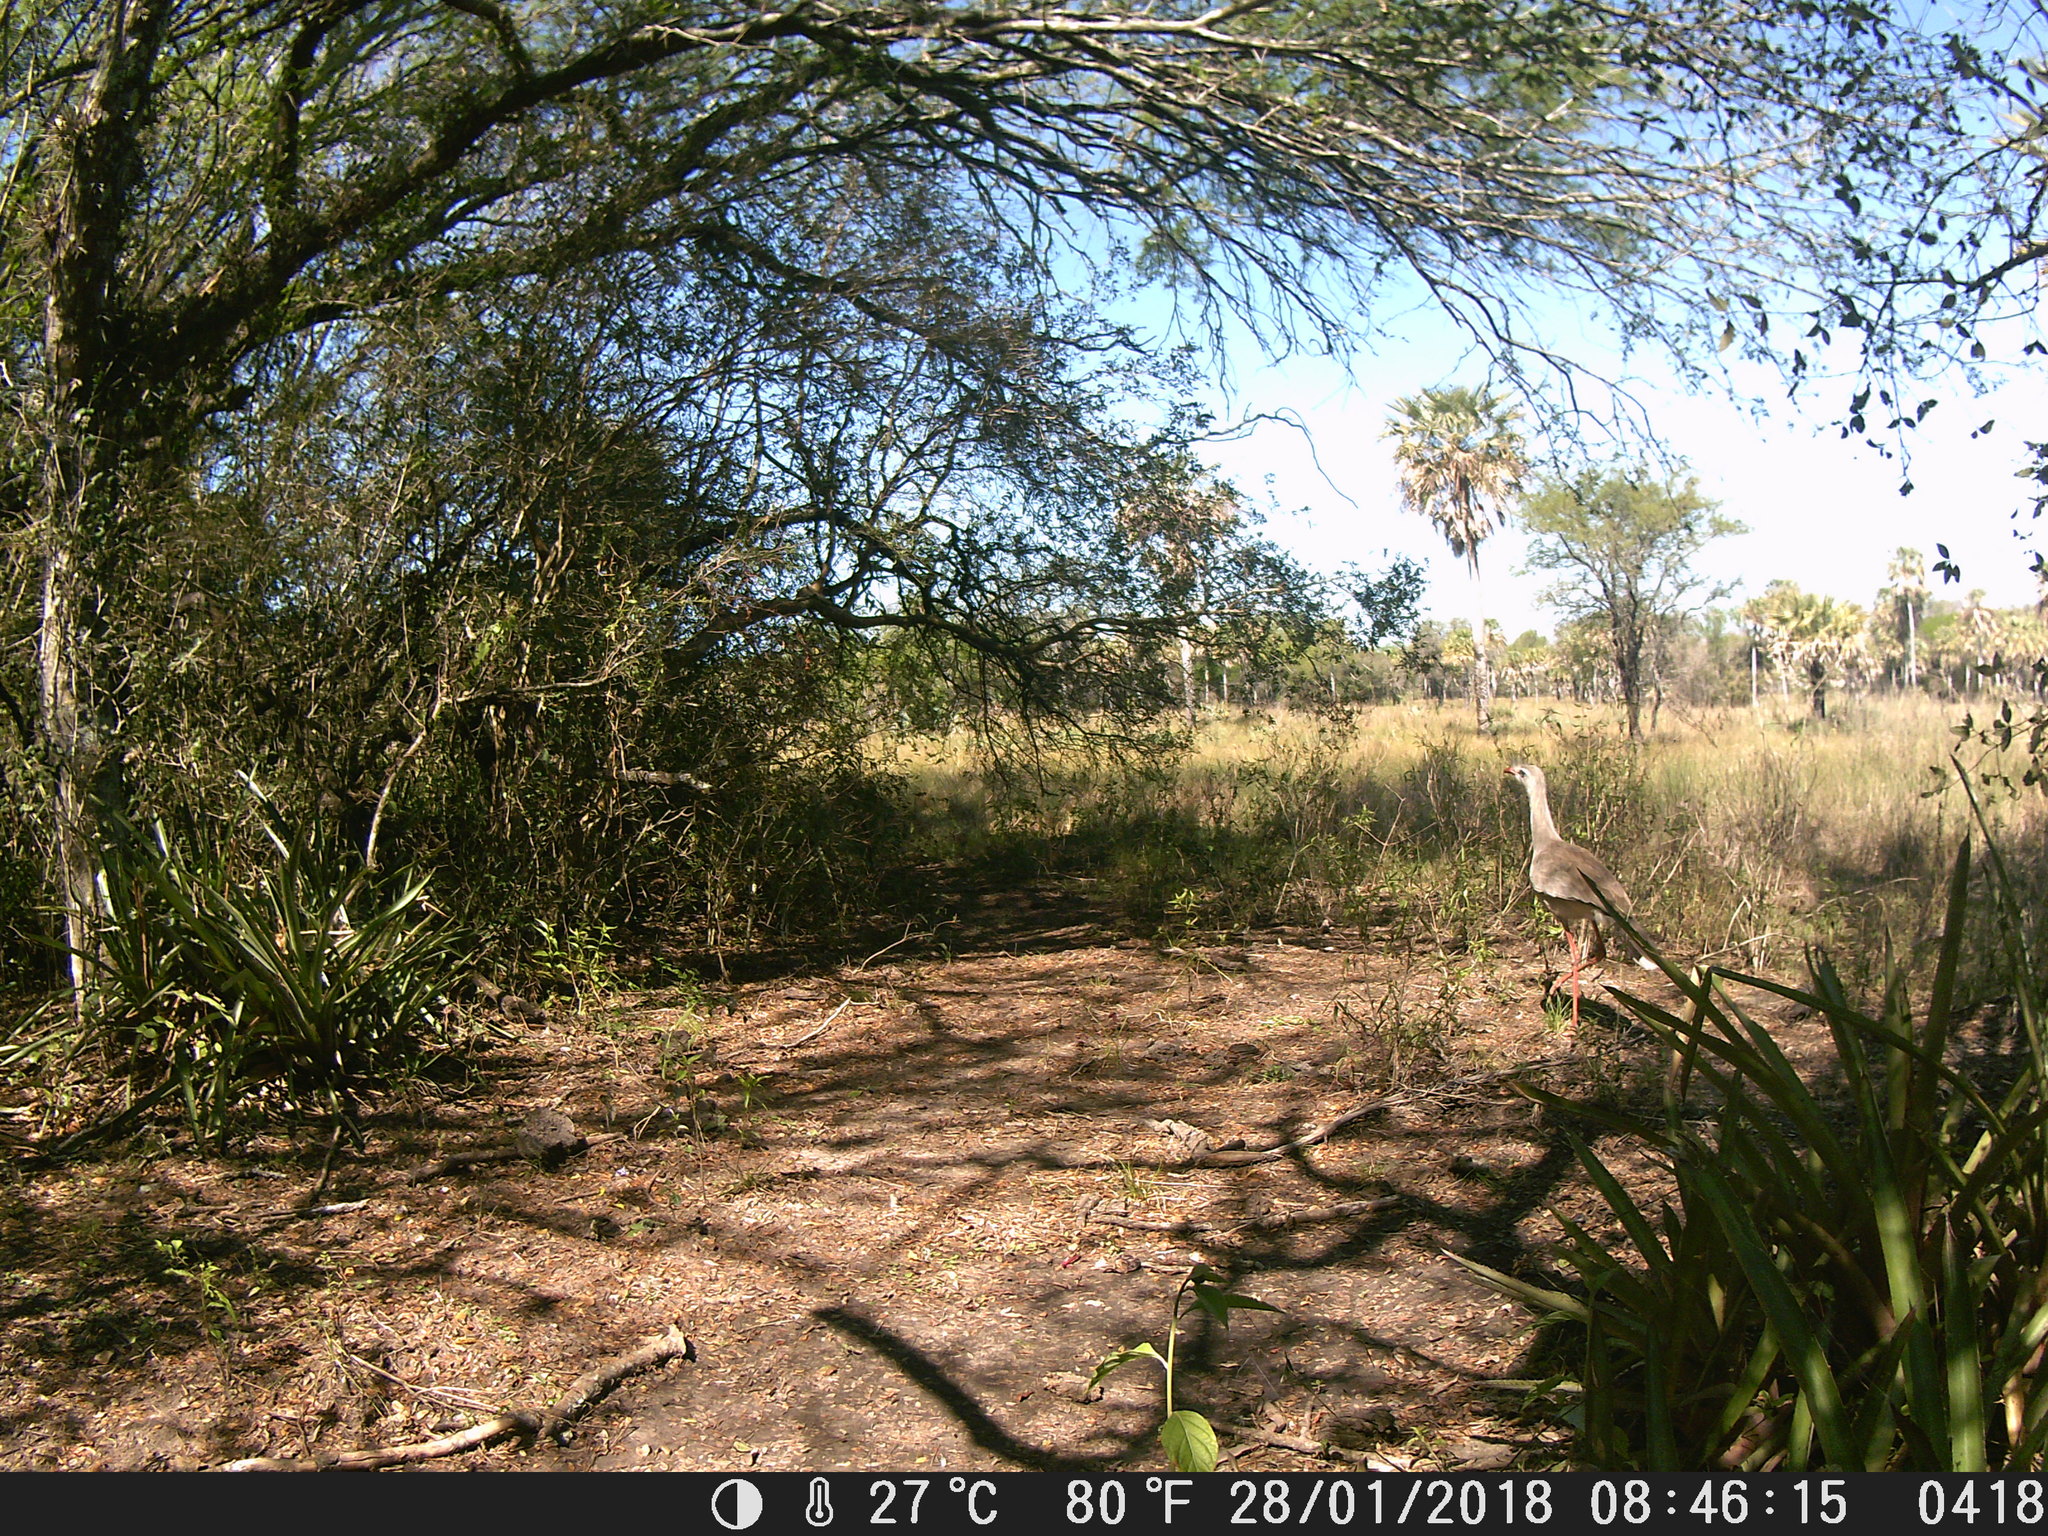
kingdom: Animalia
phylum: Chordata
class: Aves
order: Cariamiformes
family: Cariamidae
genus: Cariama
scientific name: Cariama cristata
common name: Red-legged seriema
